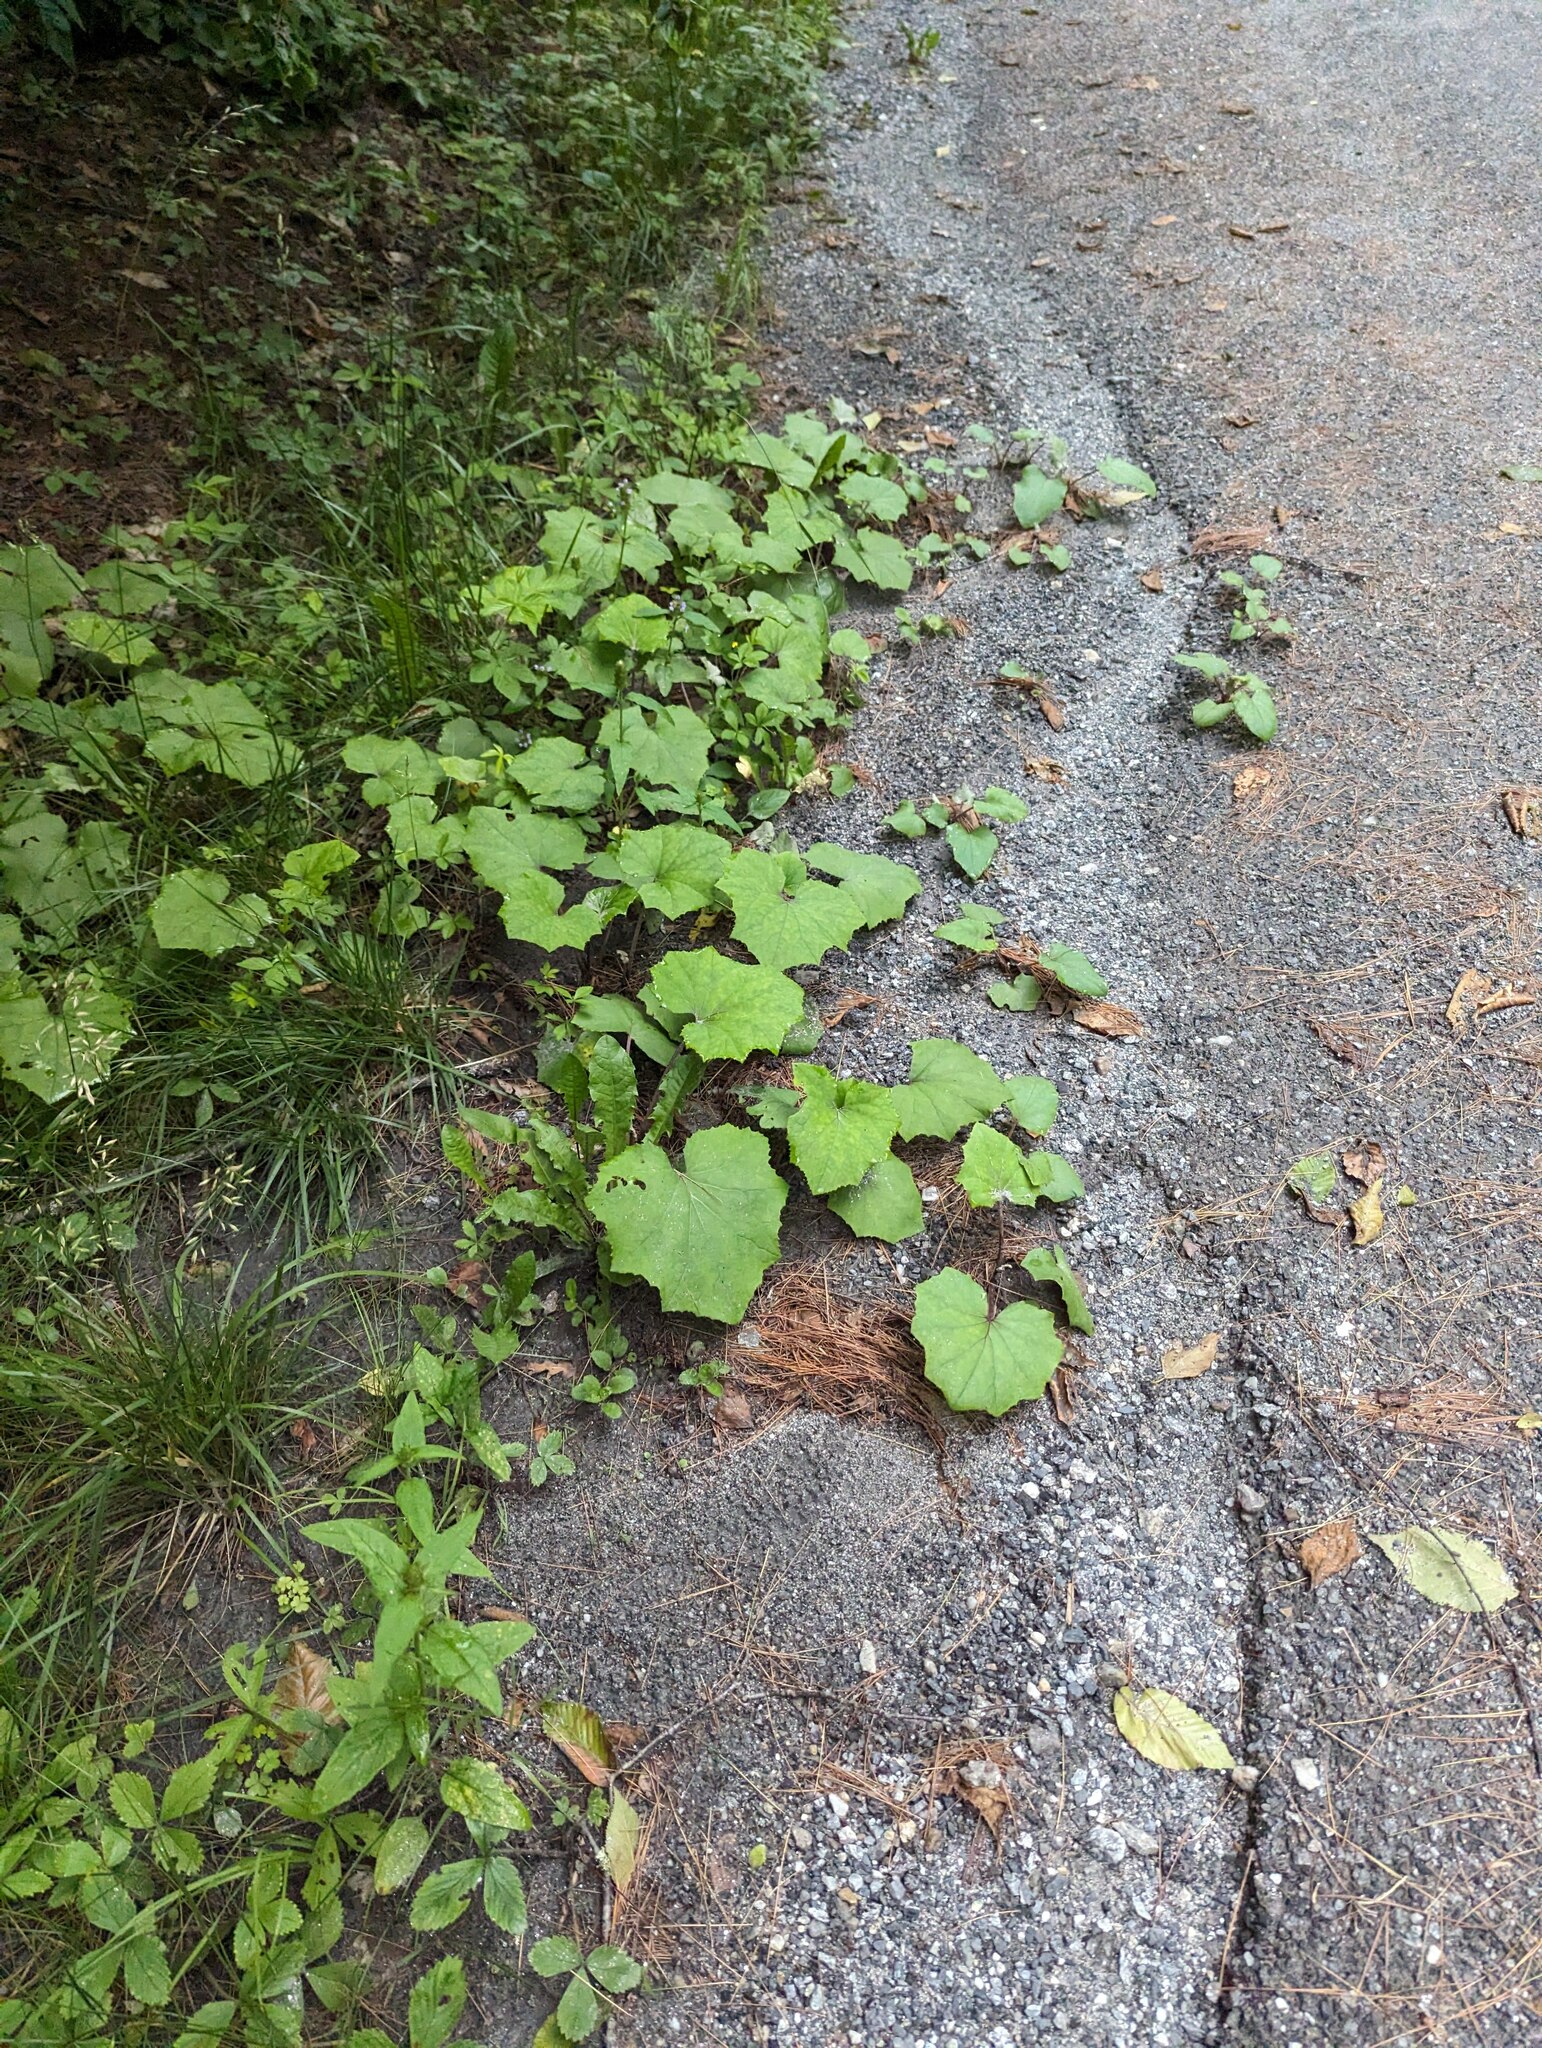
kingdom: Plantae
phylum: Tracheophyta
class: Magnoliopsida
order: Asterales
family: Asteraceae
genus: Tussilago
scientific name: Tussilago farfara
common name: Coltsfoot
